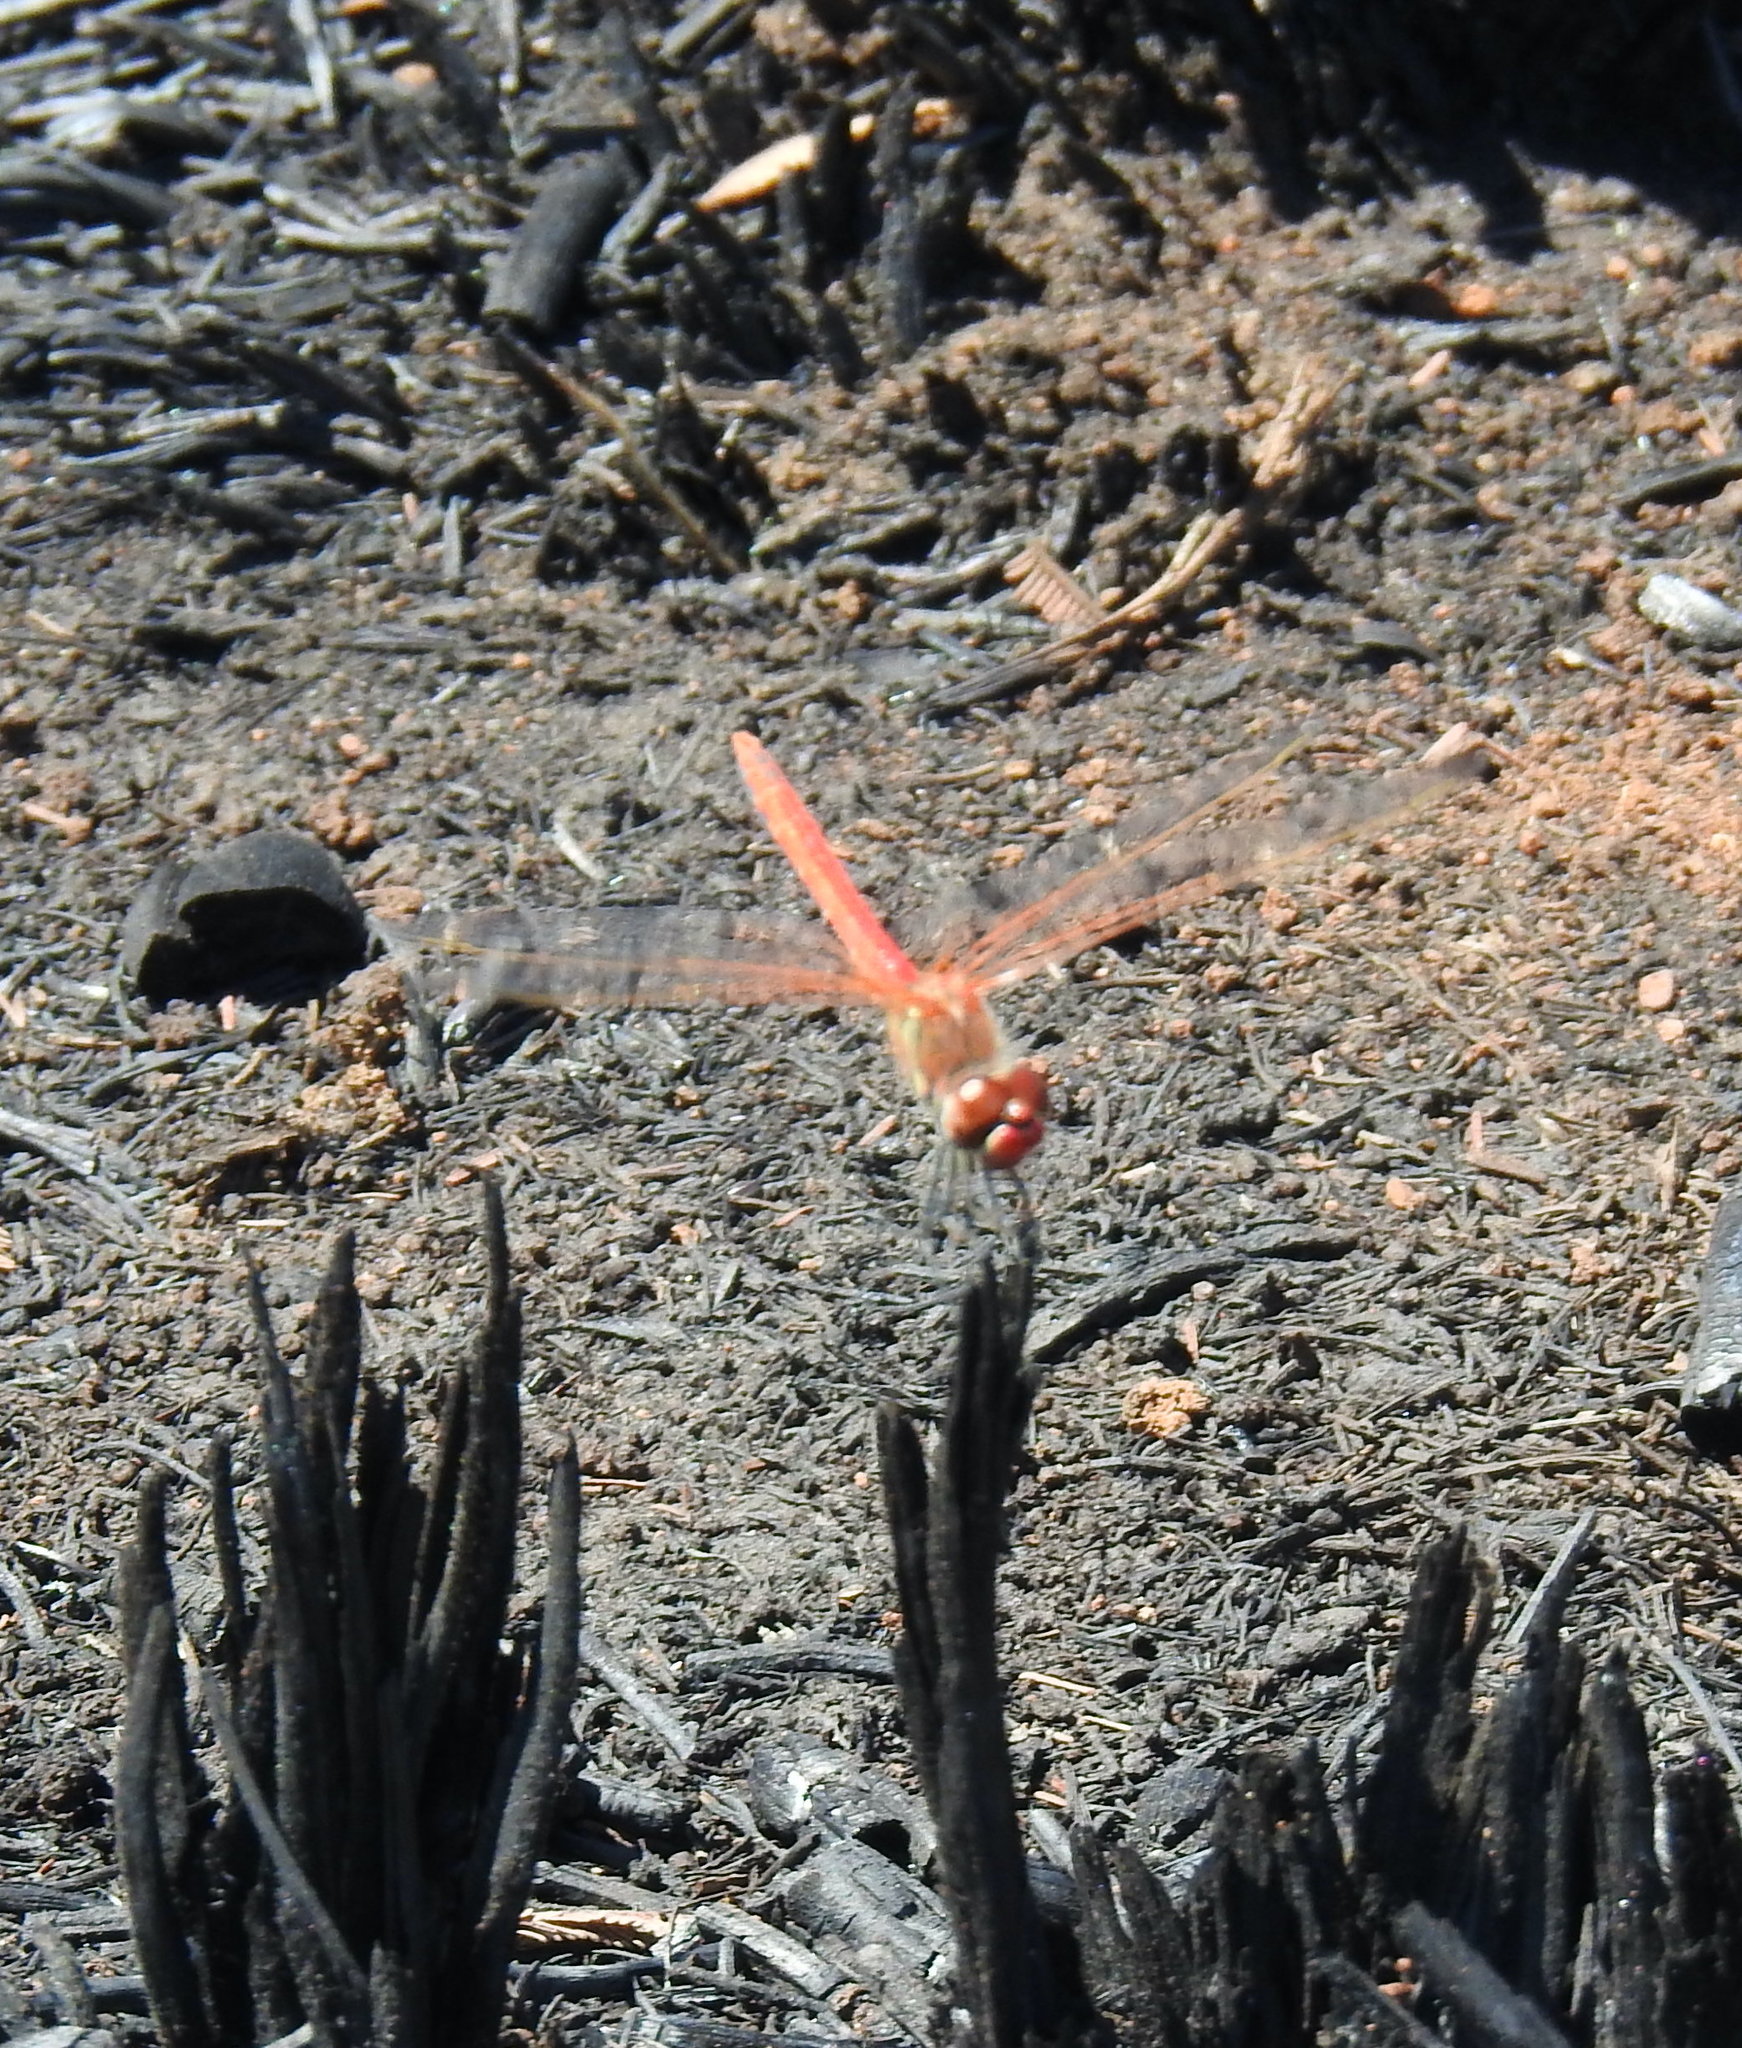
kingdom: Animalia
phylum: Arthropoda
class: Insecta
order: Odonata
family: Libellulidae
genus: Sympetrum
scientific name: Sympetrum fonscolombii
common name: Red-veined darter
